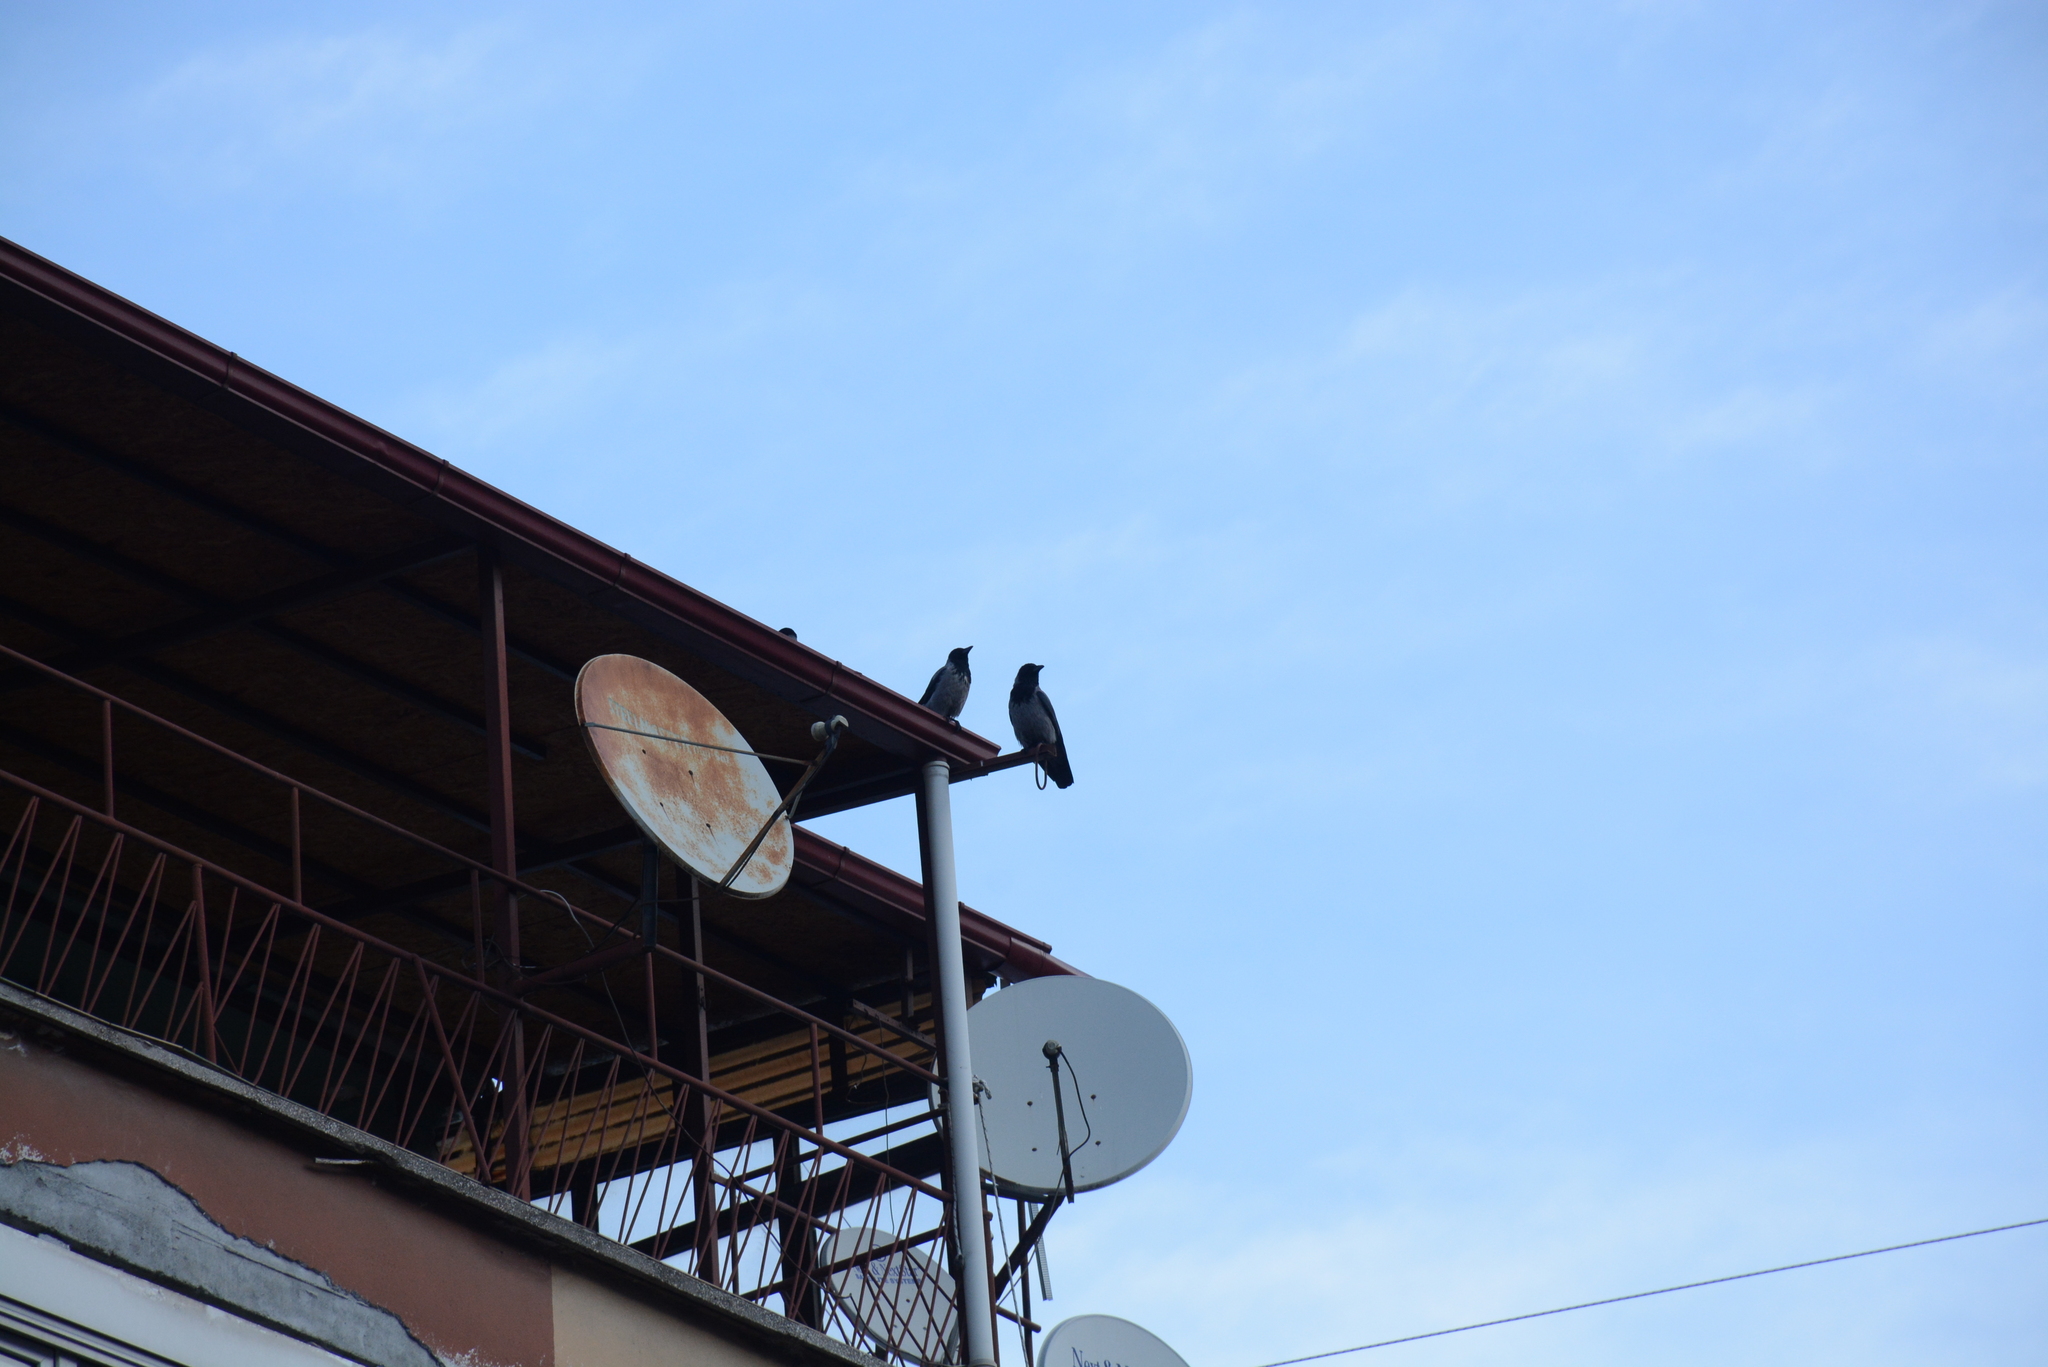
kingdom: Animalia
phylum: Chordata
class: Aves
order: Passeriformes
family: Corvidae
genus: Corvus
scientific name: Corvus cornix
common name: Hooded crow
